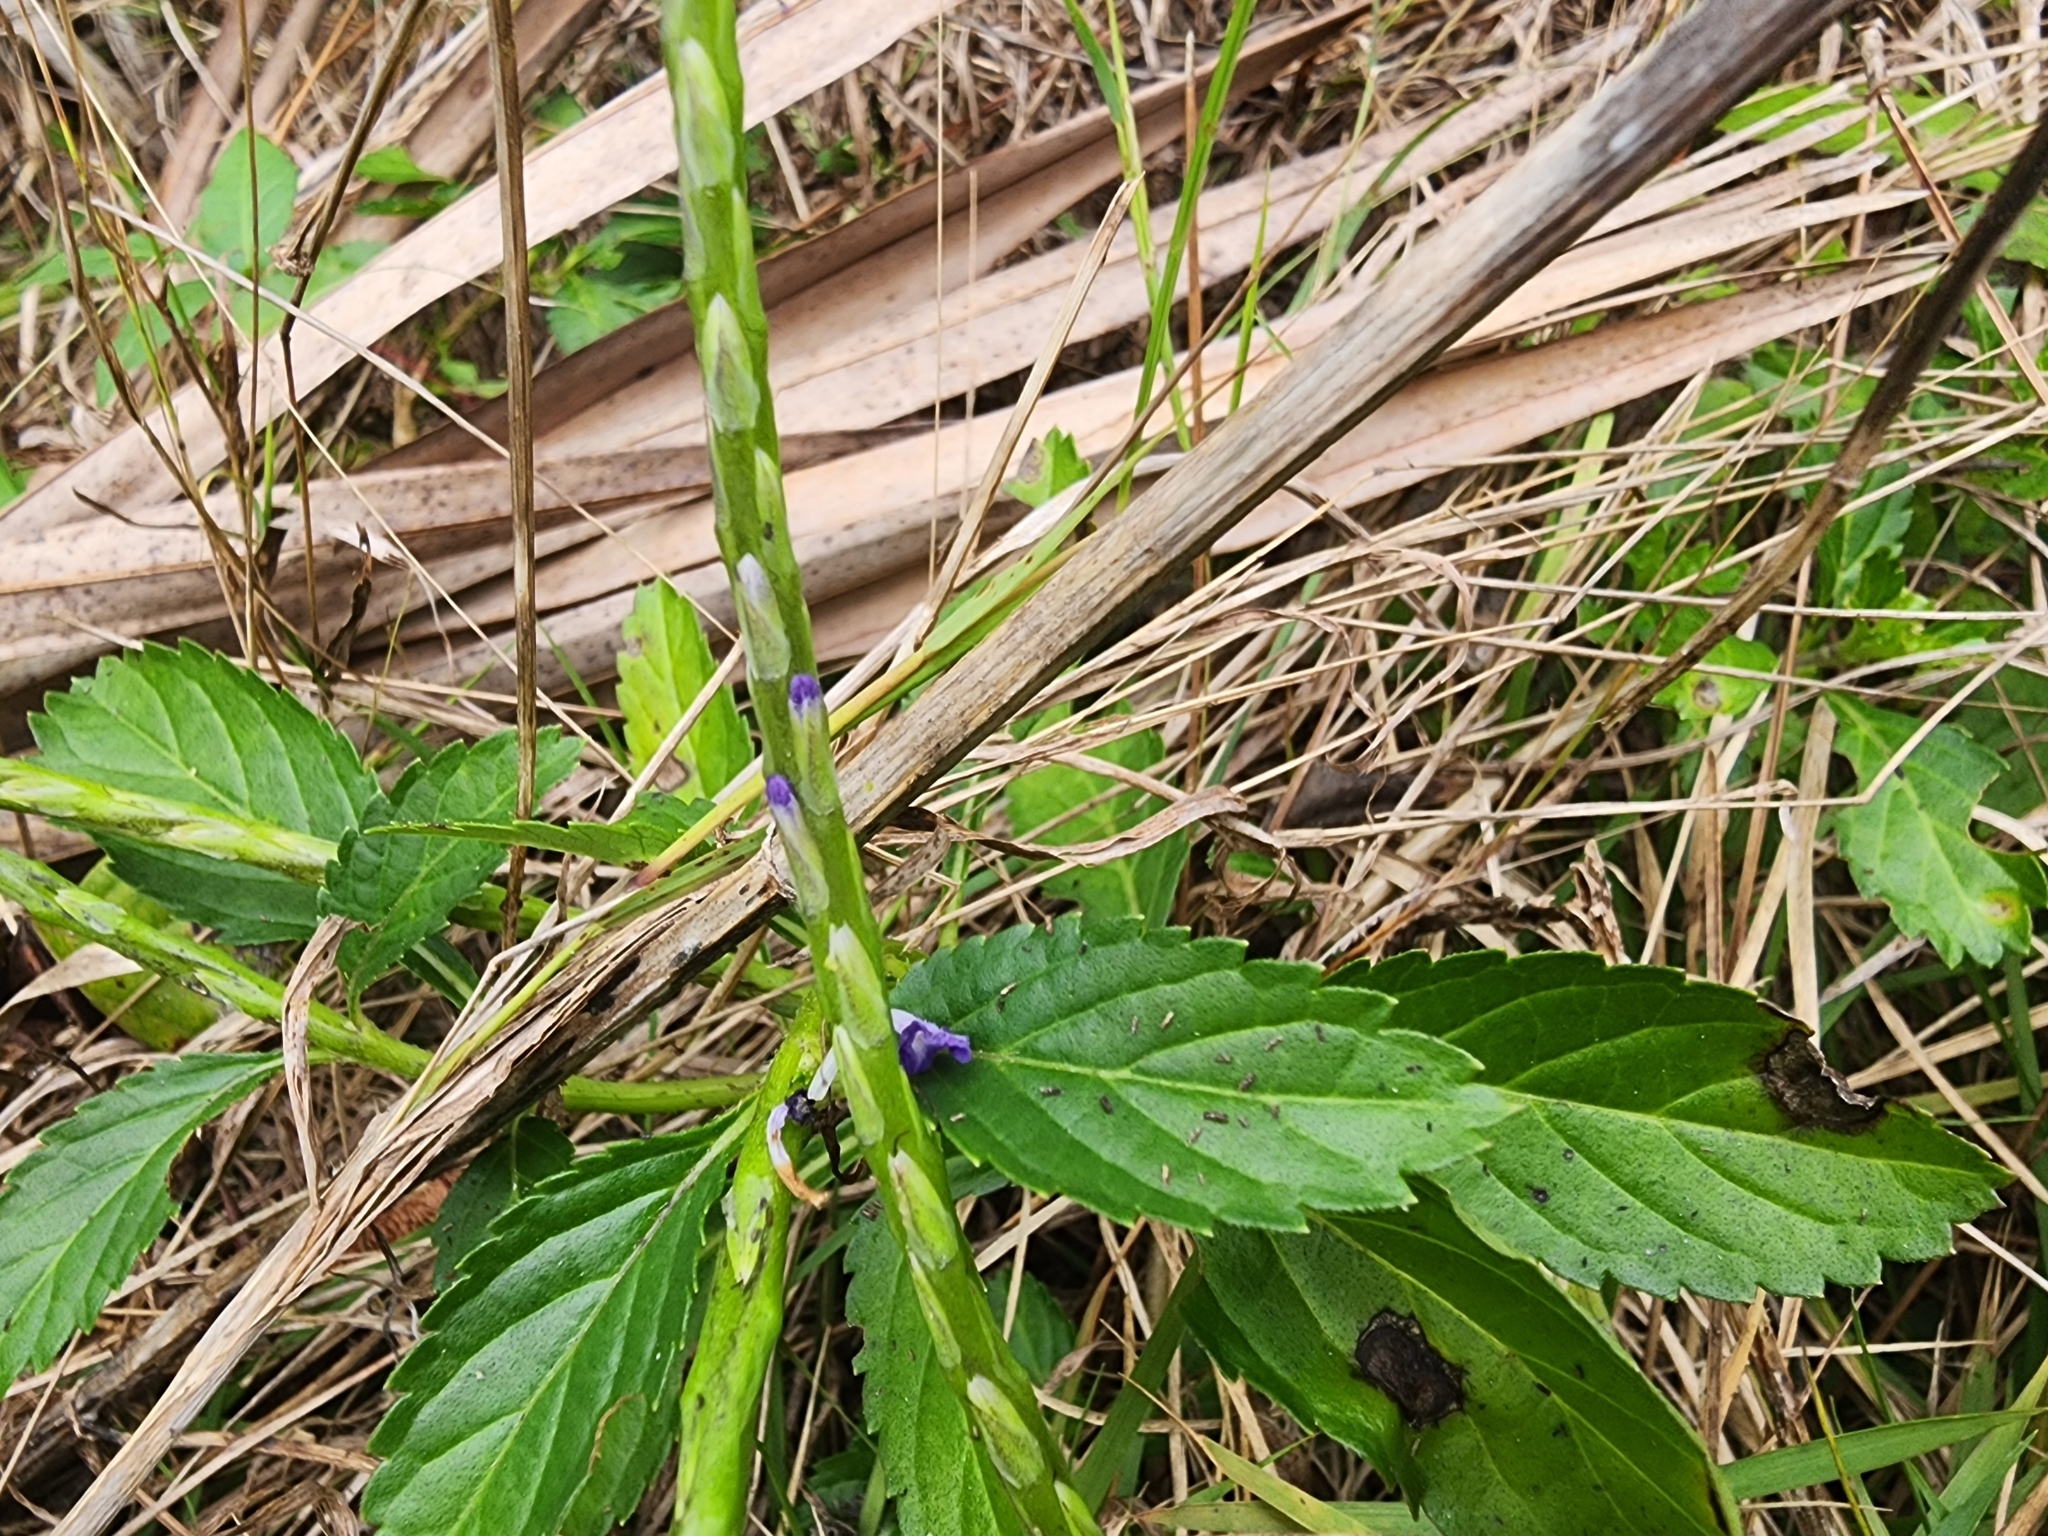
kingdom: Plantae
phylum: Tracheophyta
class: Magnoliopsida
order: Lamiales
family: Verbenaceae
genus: Stachytarpheta
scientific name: Stachytarpheta jamaicensis
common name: Light-blue snakeweed
